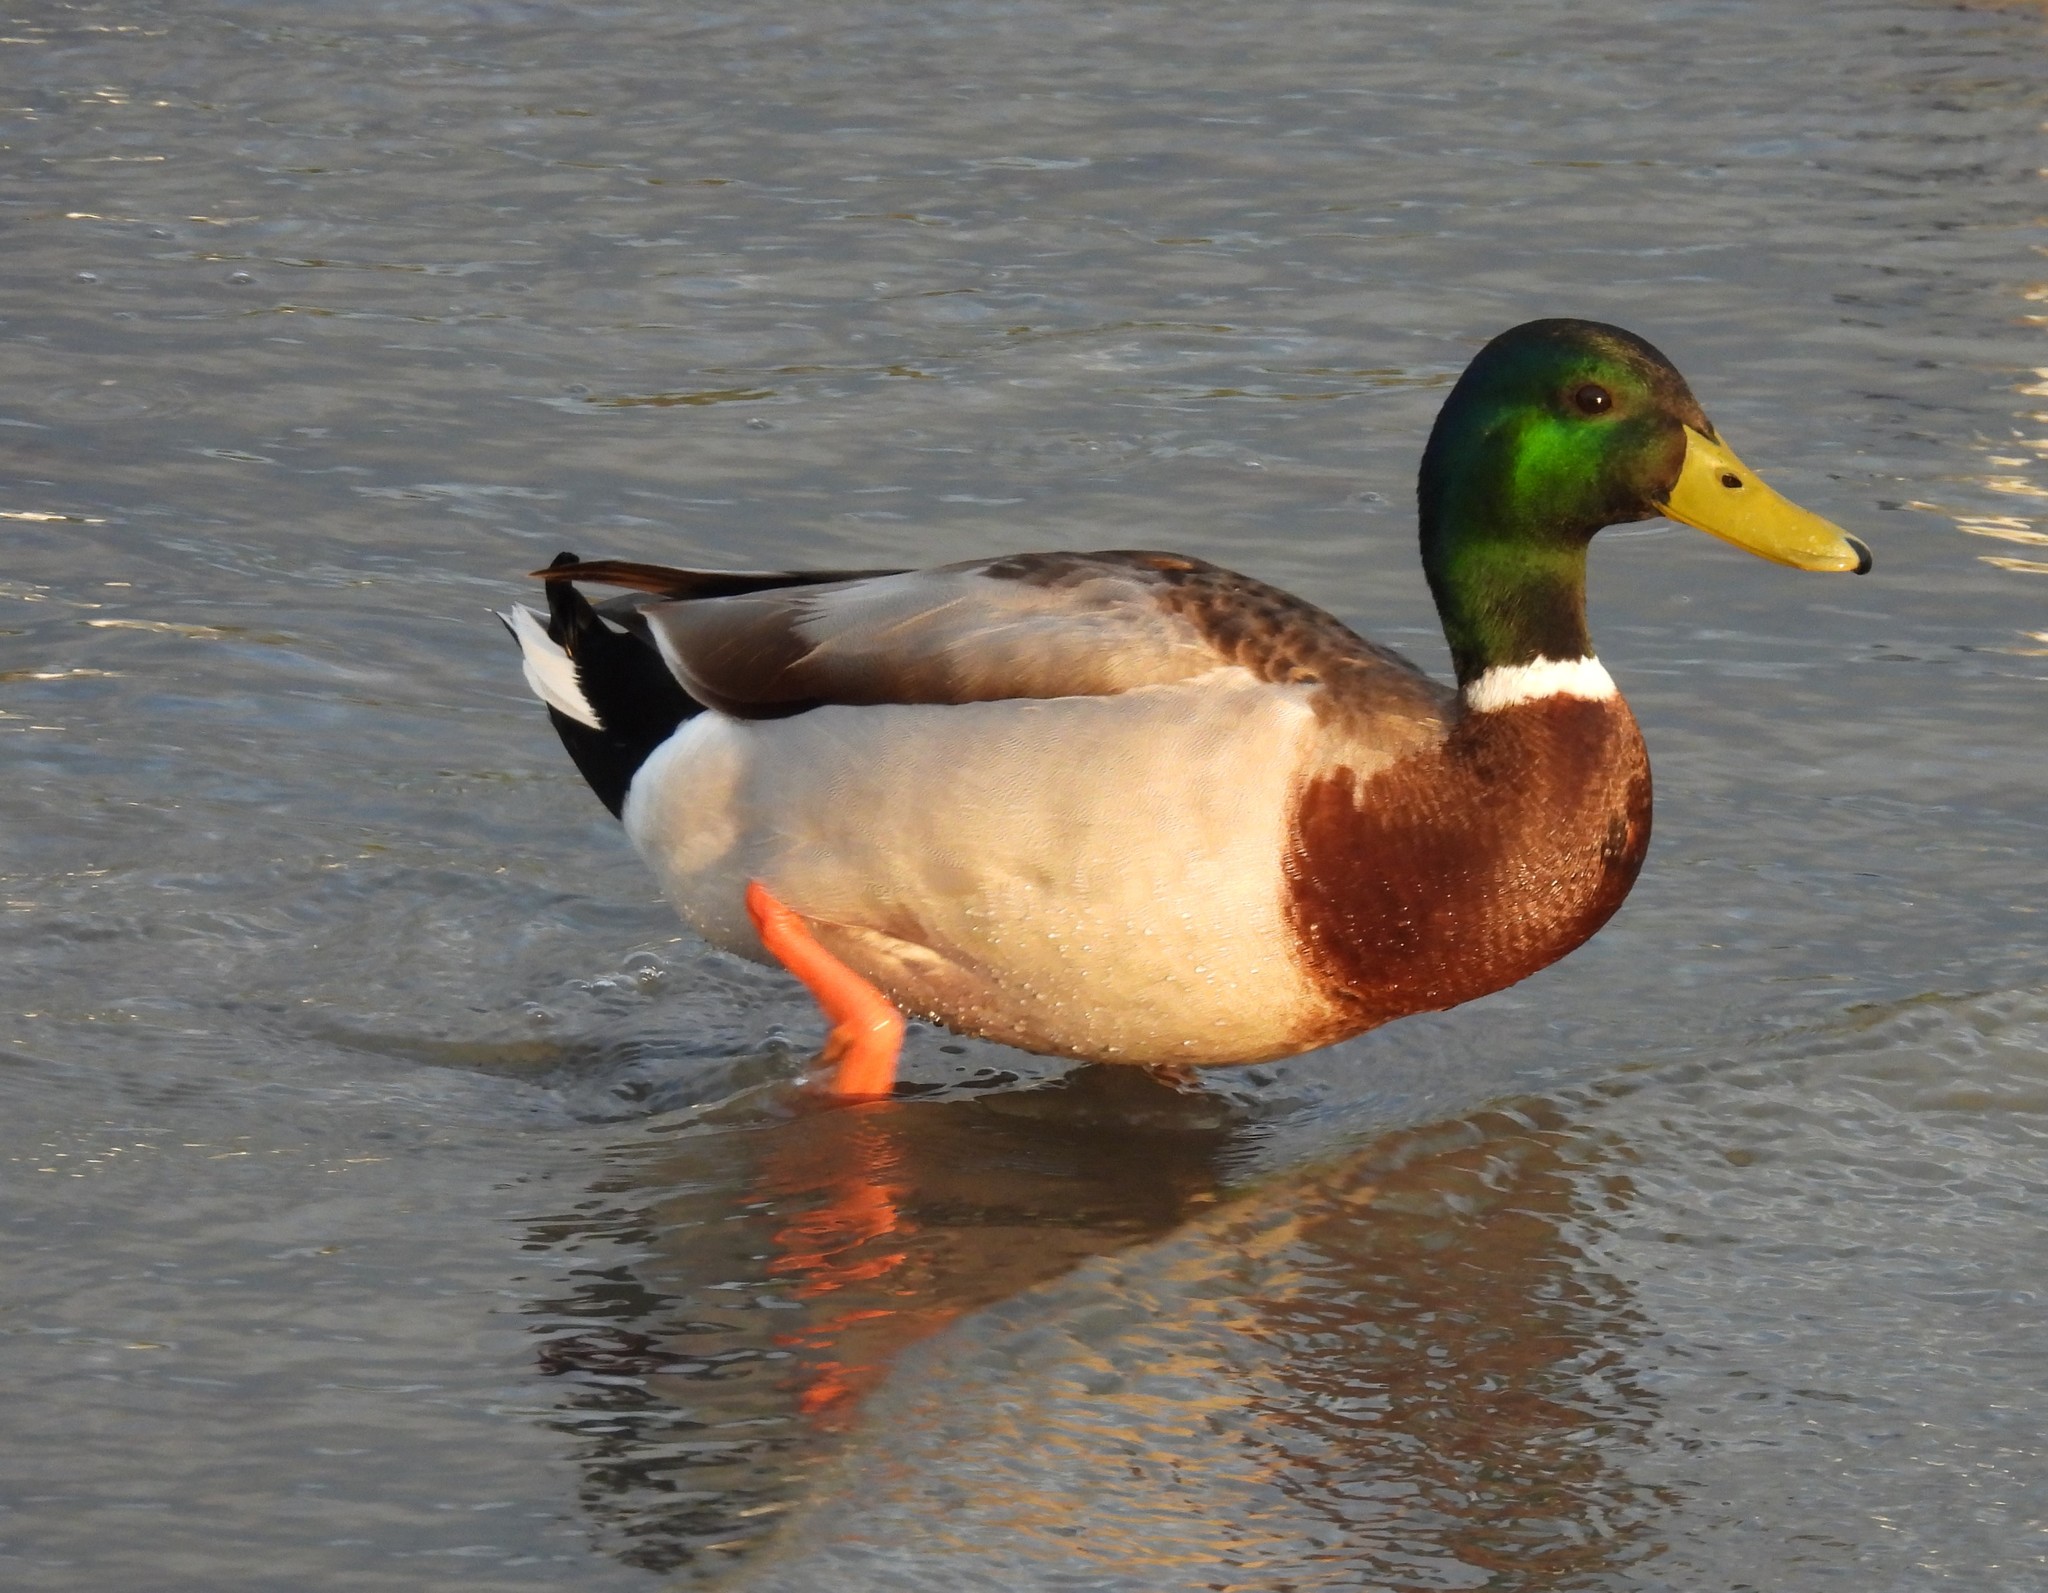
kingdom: Animalia
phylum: Chordata
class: Aves
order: Anseriformes
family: Anatidae
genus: Anas
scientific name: Anas platyrhynchos
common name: Mallard
